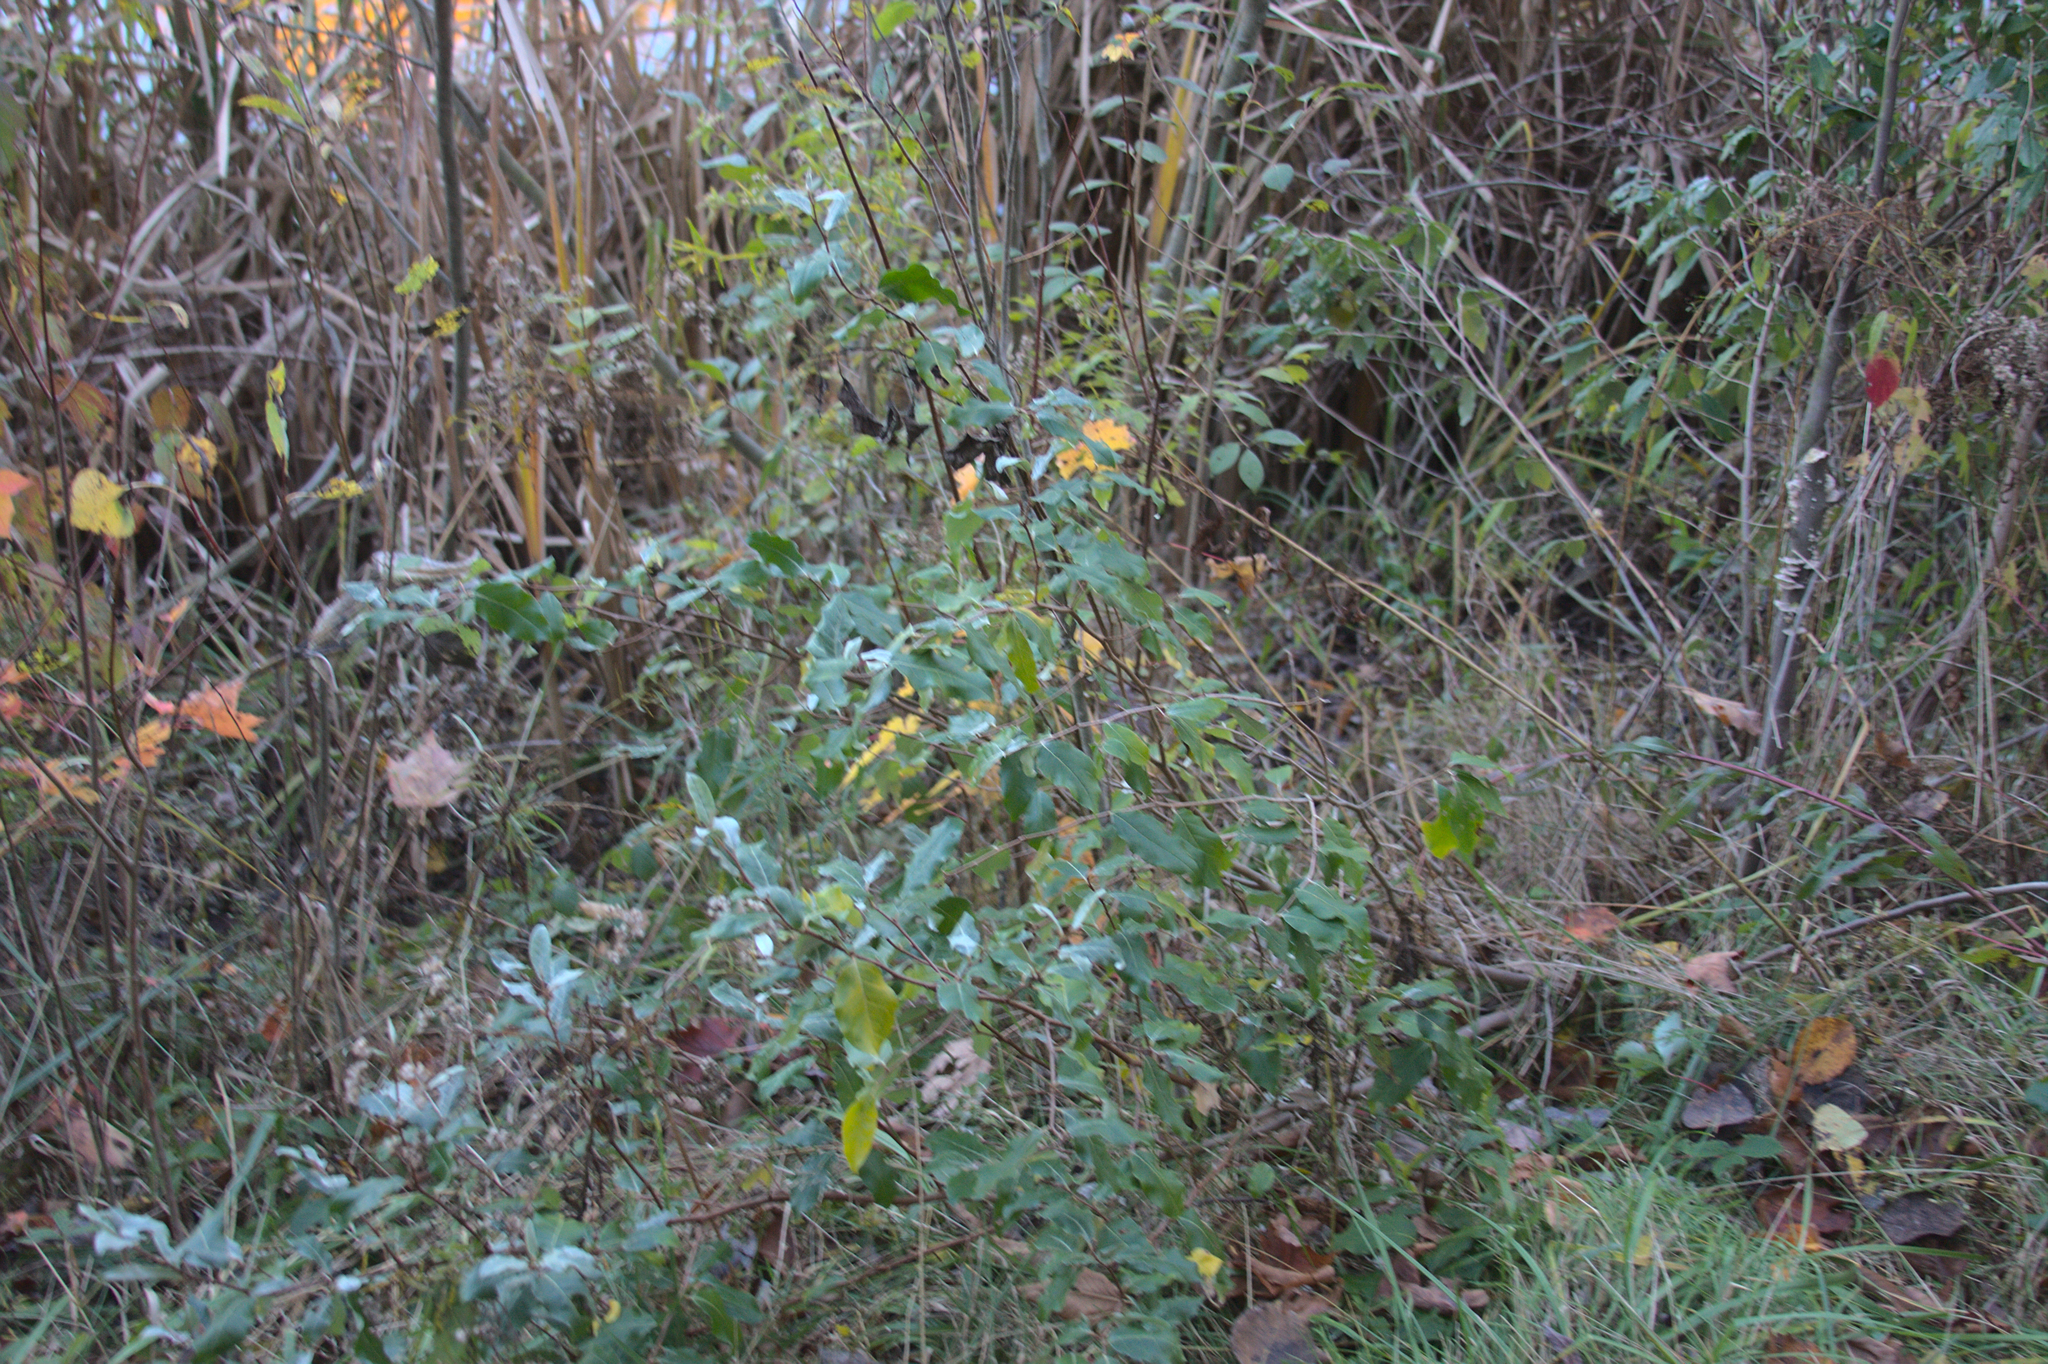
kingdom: Plantae
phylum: Tracheophyta
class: Magnoliopsida
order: Rosales
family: Elaeagnaceae
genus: Elaeagnus
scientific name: Elaeagnus umbellata
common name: Autumn olive
